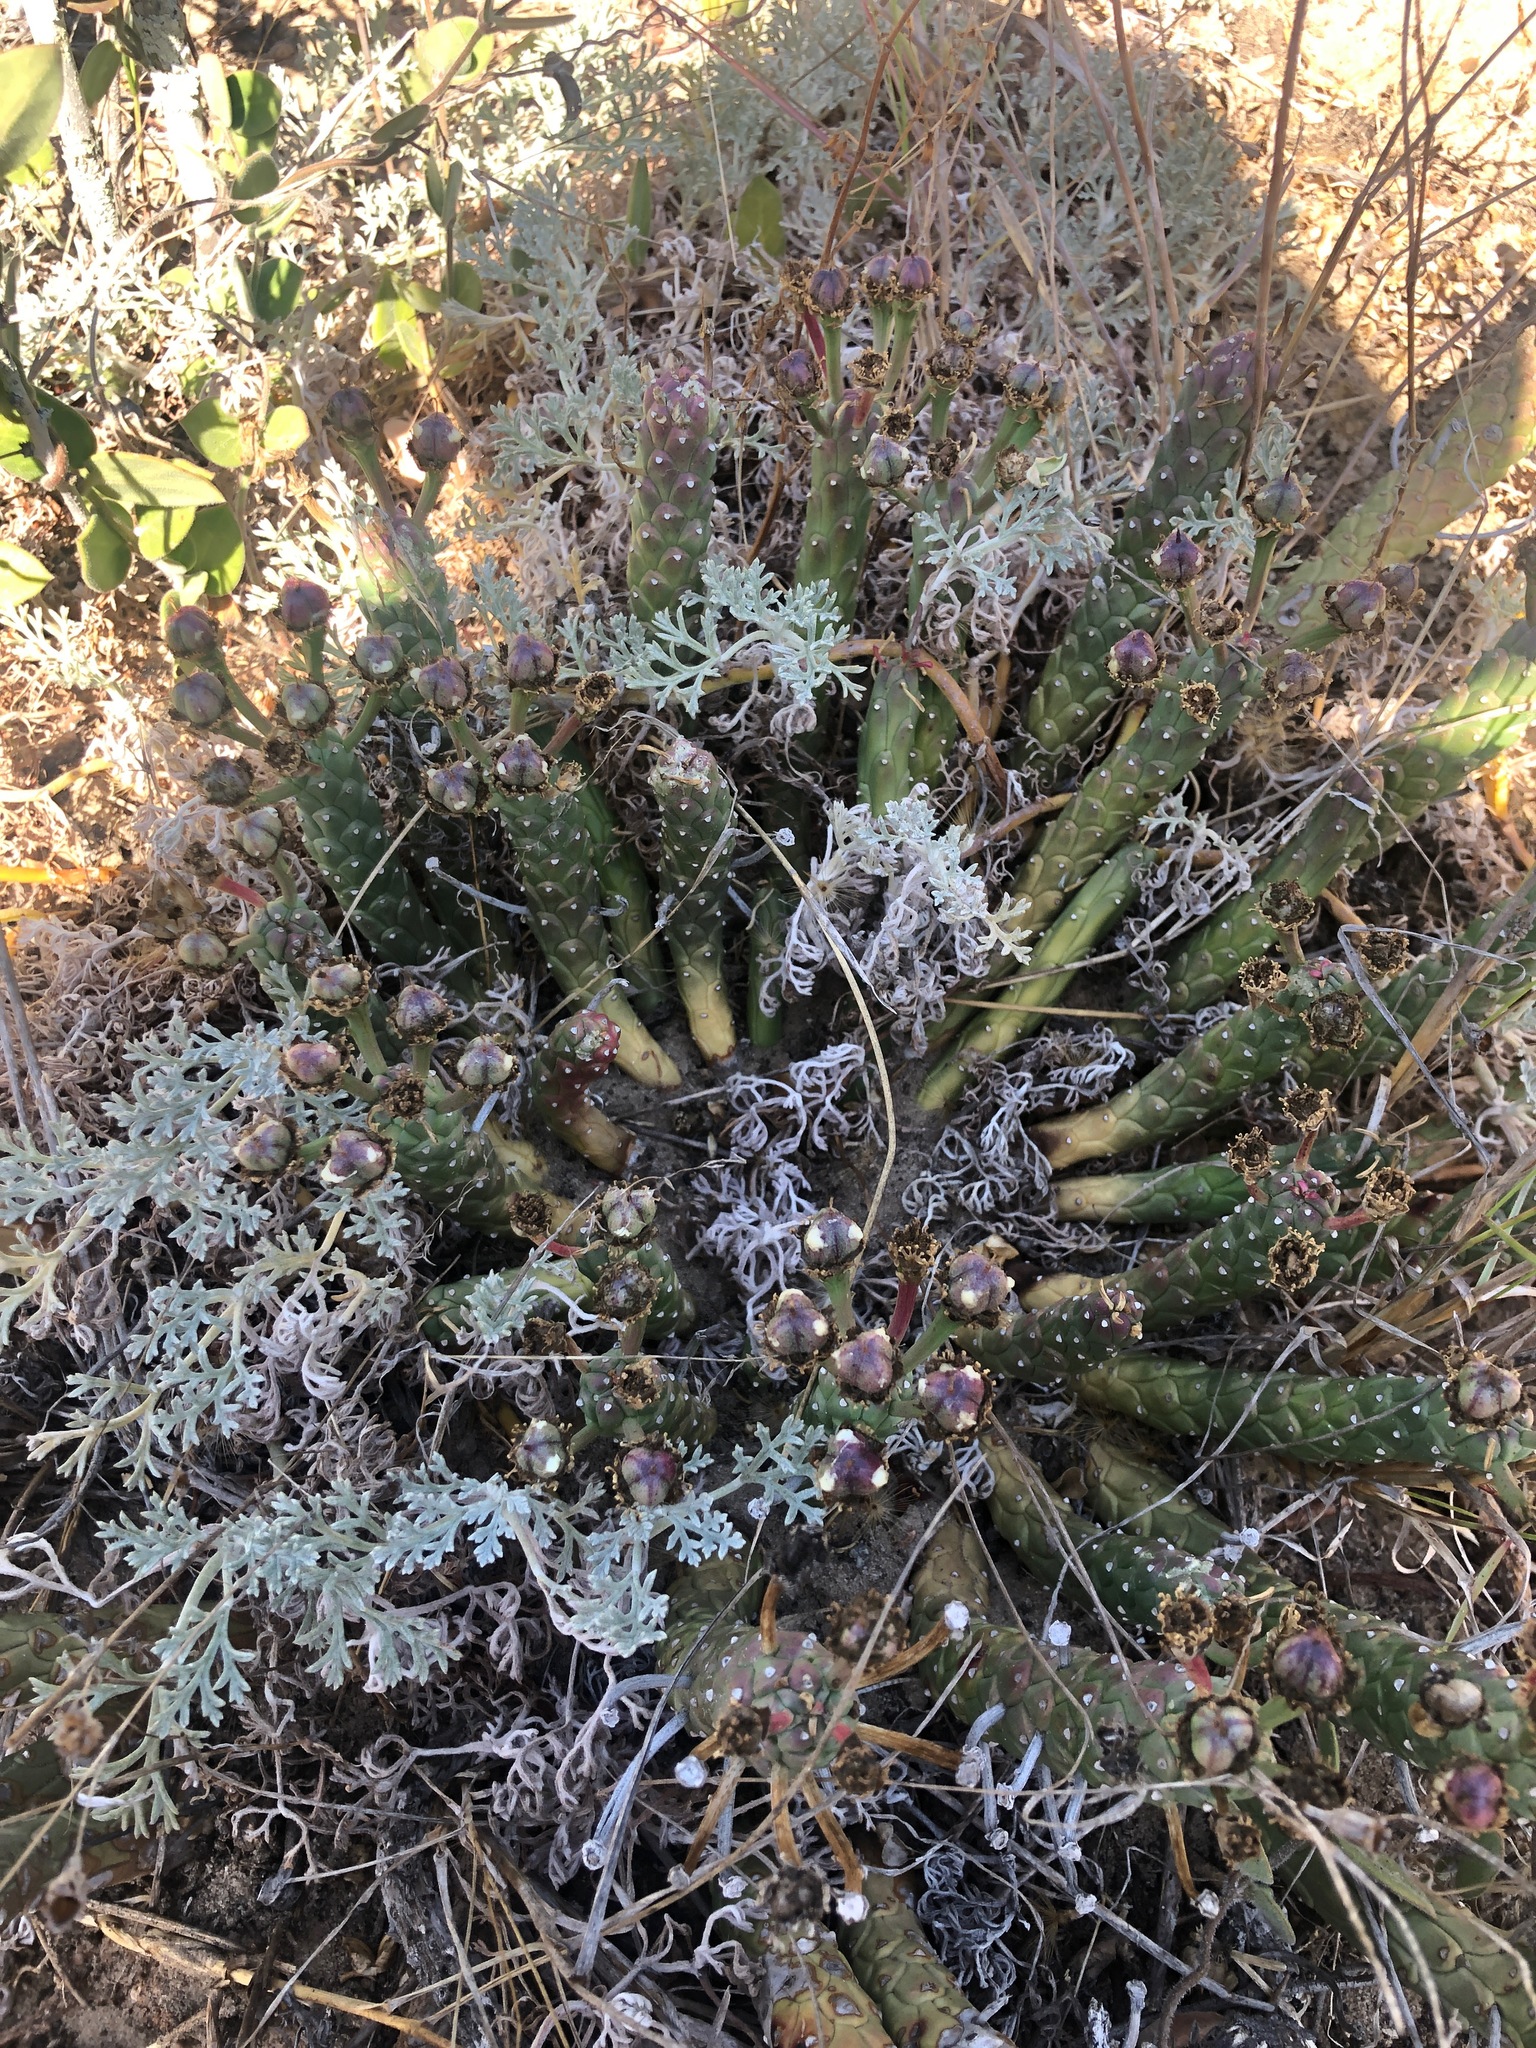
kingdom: Plantae
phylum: Tracheophyta
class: Magnoliopsida
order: Malpighiales
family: Euphorbiaceae
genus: Euphorbia
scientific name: Euphorbia caput-medusae
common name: Medusa's-head
